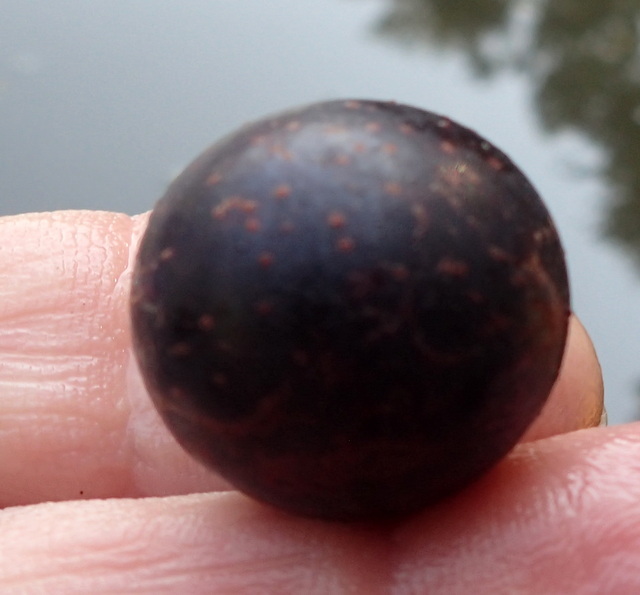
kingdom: Plantae
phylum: Tracheophyta
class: Magnoliopsida
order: Vitales
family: Vitaceae
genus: Vitis
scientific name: Vitis rotundifolia
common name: Muscadine grape
